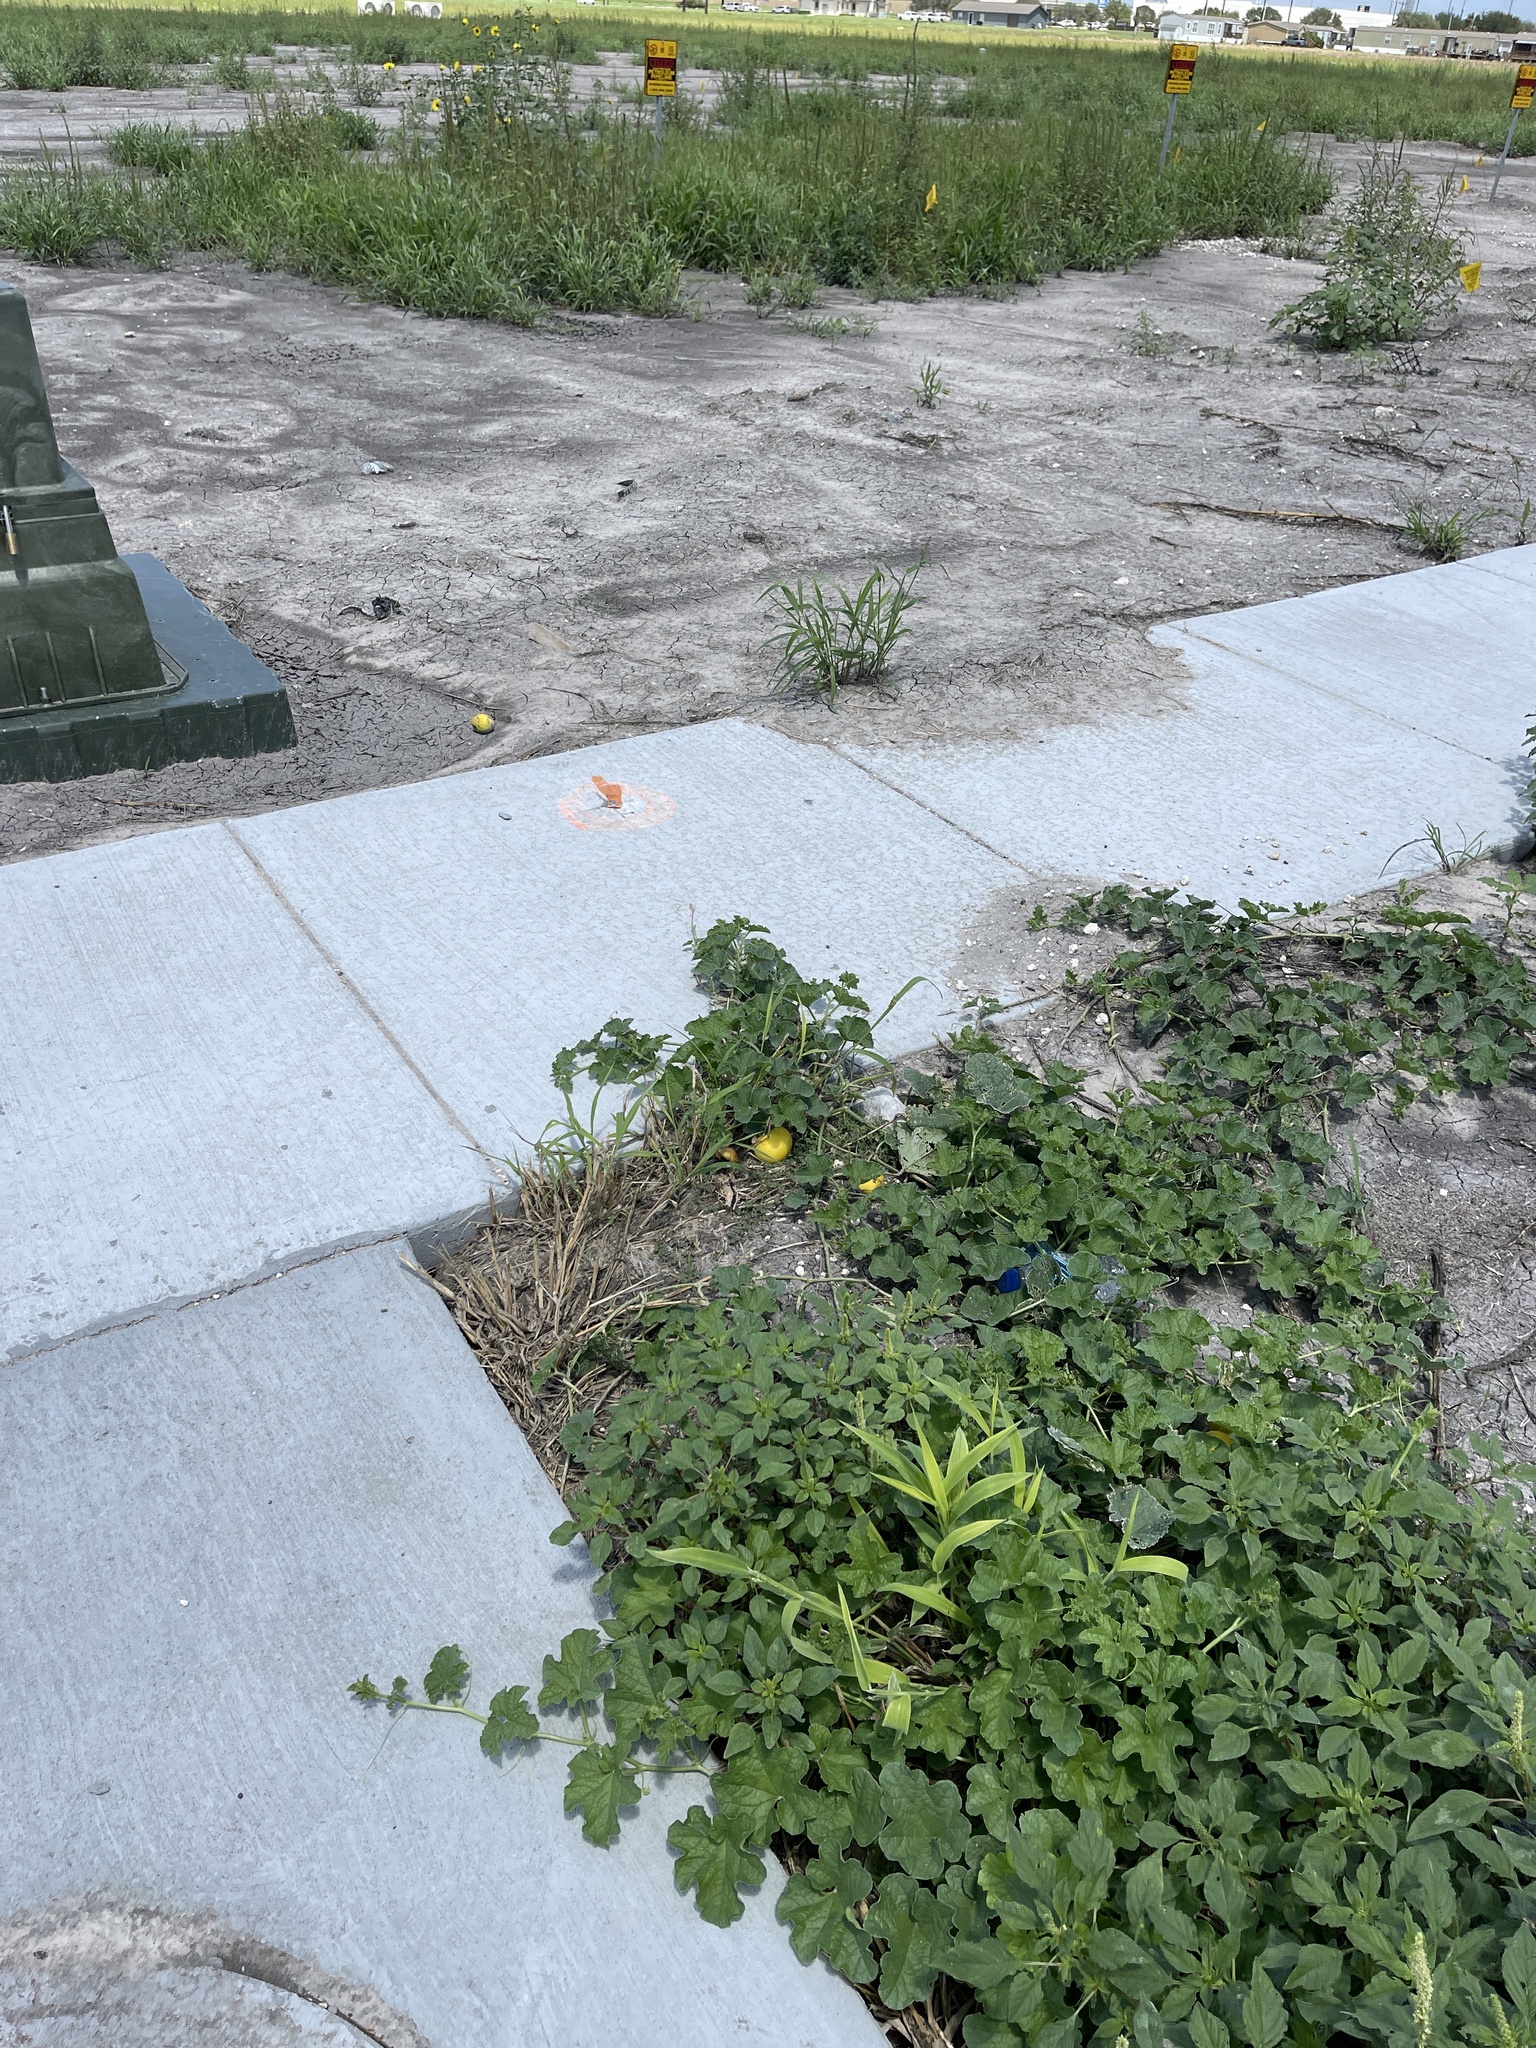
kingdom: Plantae
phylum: Tracheophyta
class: Magnoliopsida
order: Cucurbitales
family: Cucurbitaceae
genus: Cucumis
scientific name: Cucumis melo
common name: Melon
